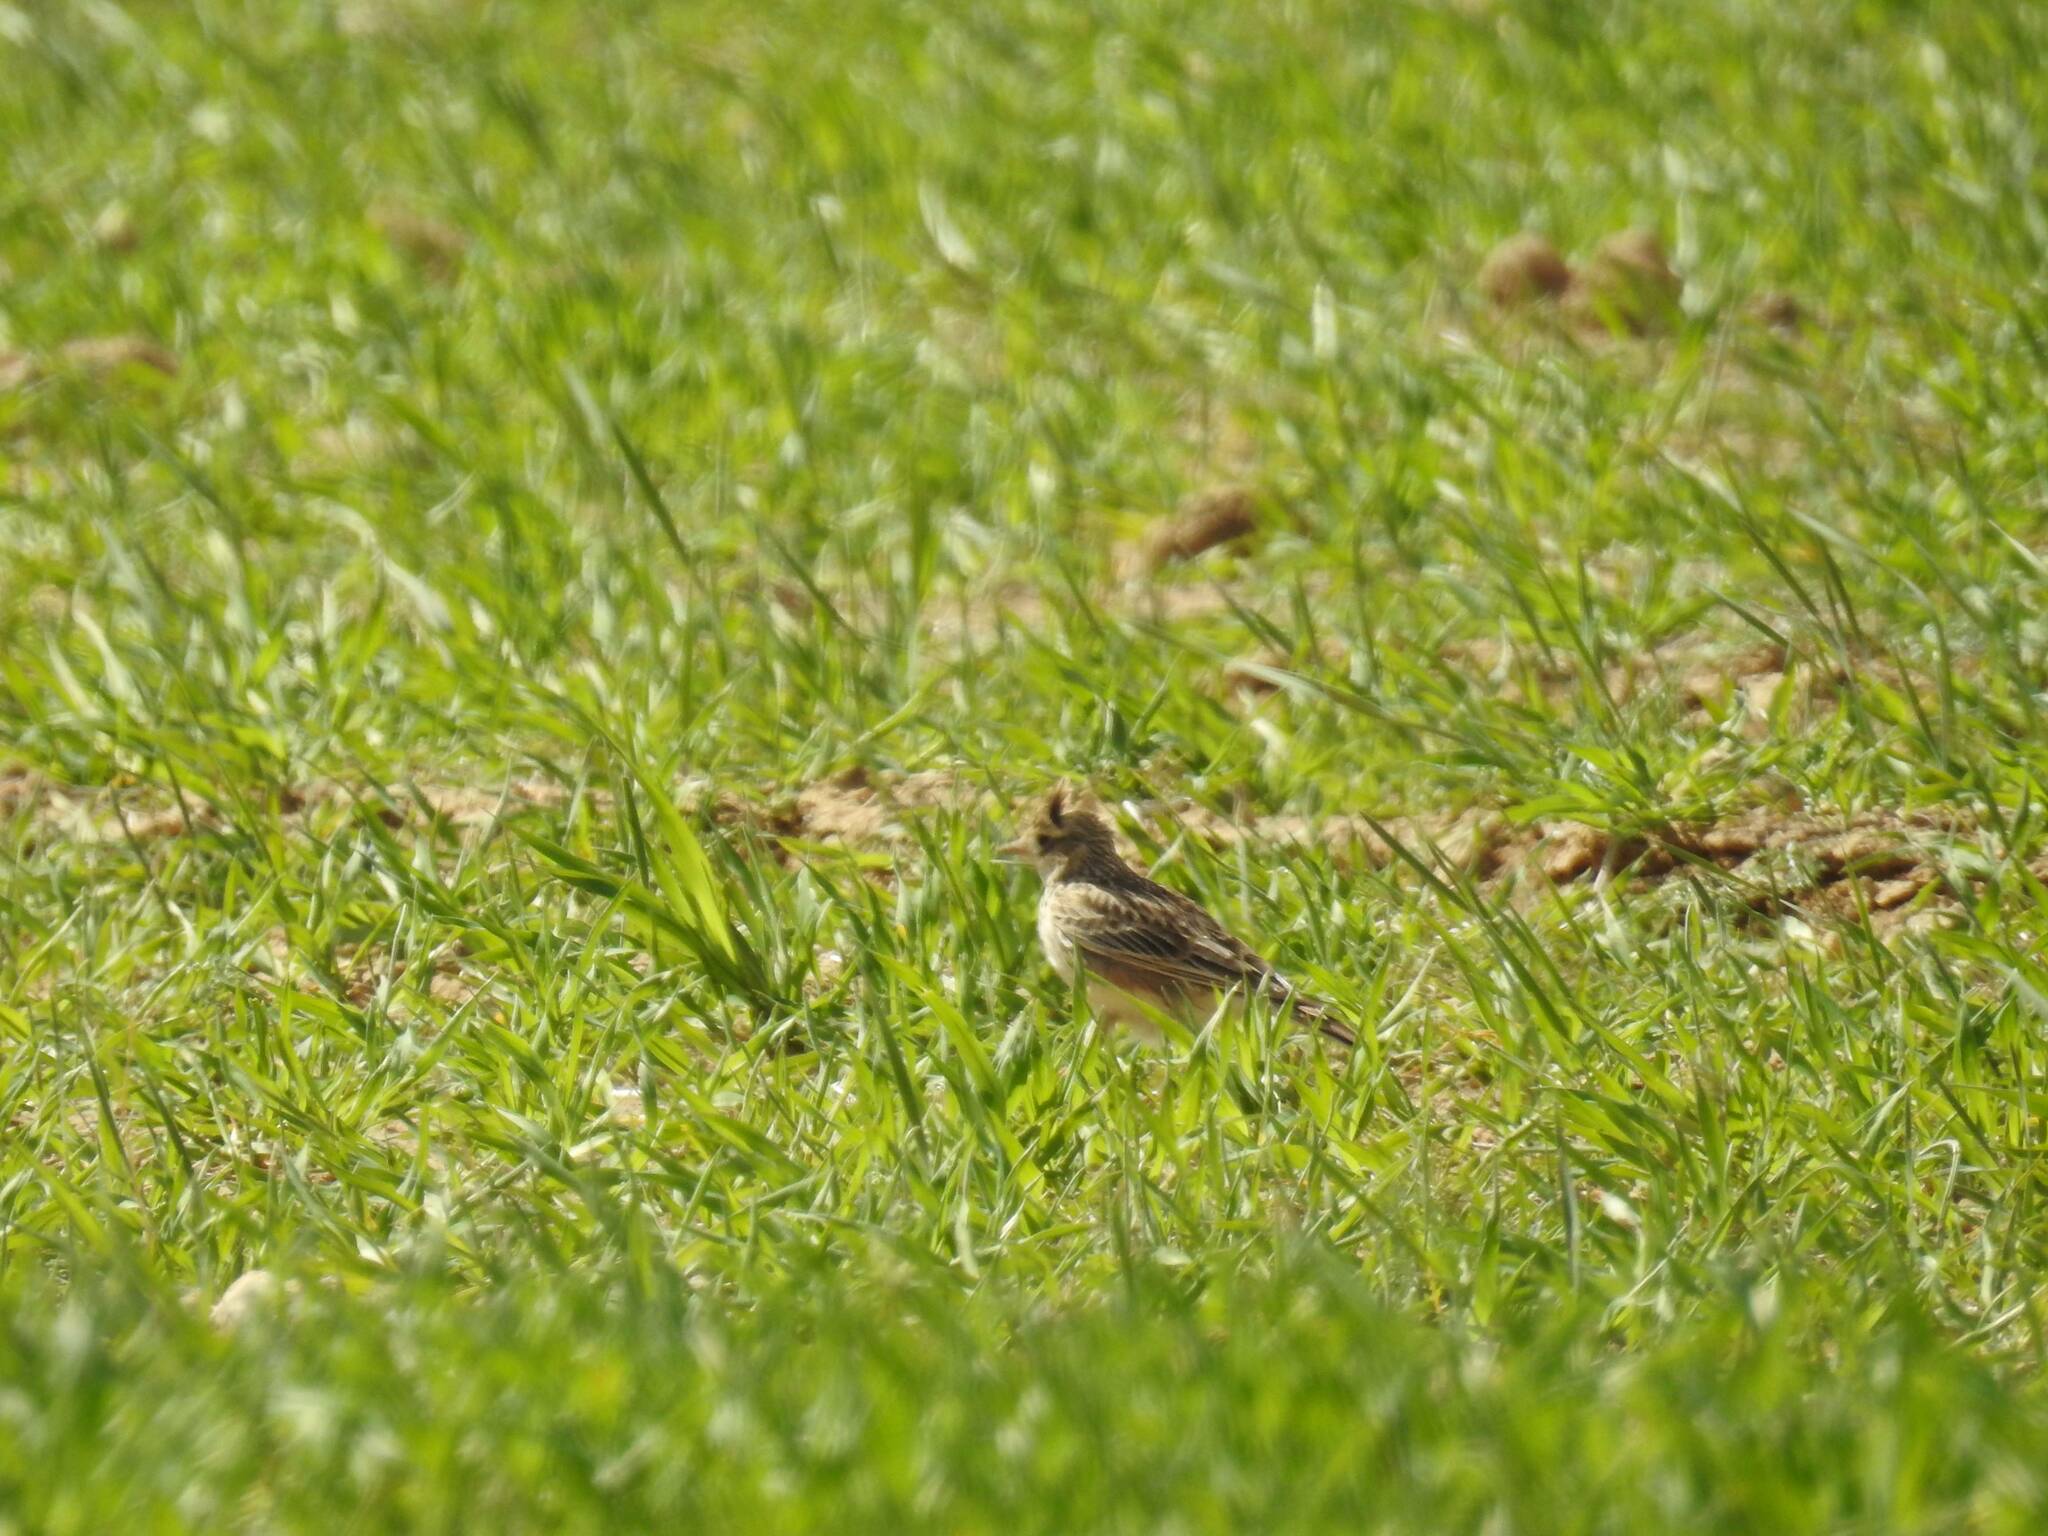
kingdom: Animalia
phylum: Chordata
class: Aves
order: Passeriformes
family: Alaudidae
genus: Galerida
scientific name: Galerida cristata
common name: Crested lark
